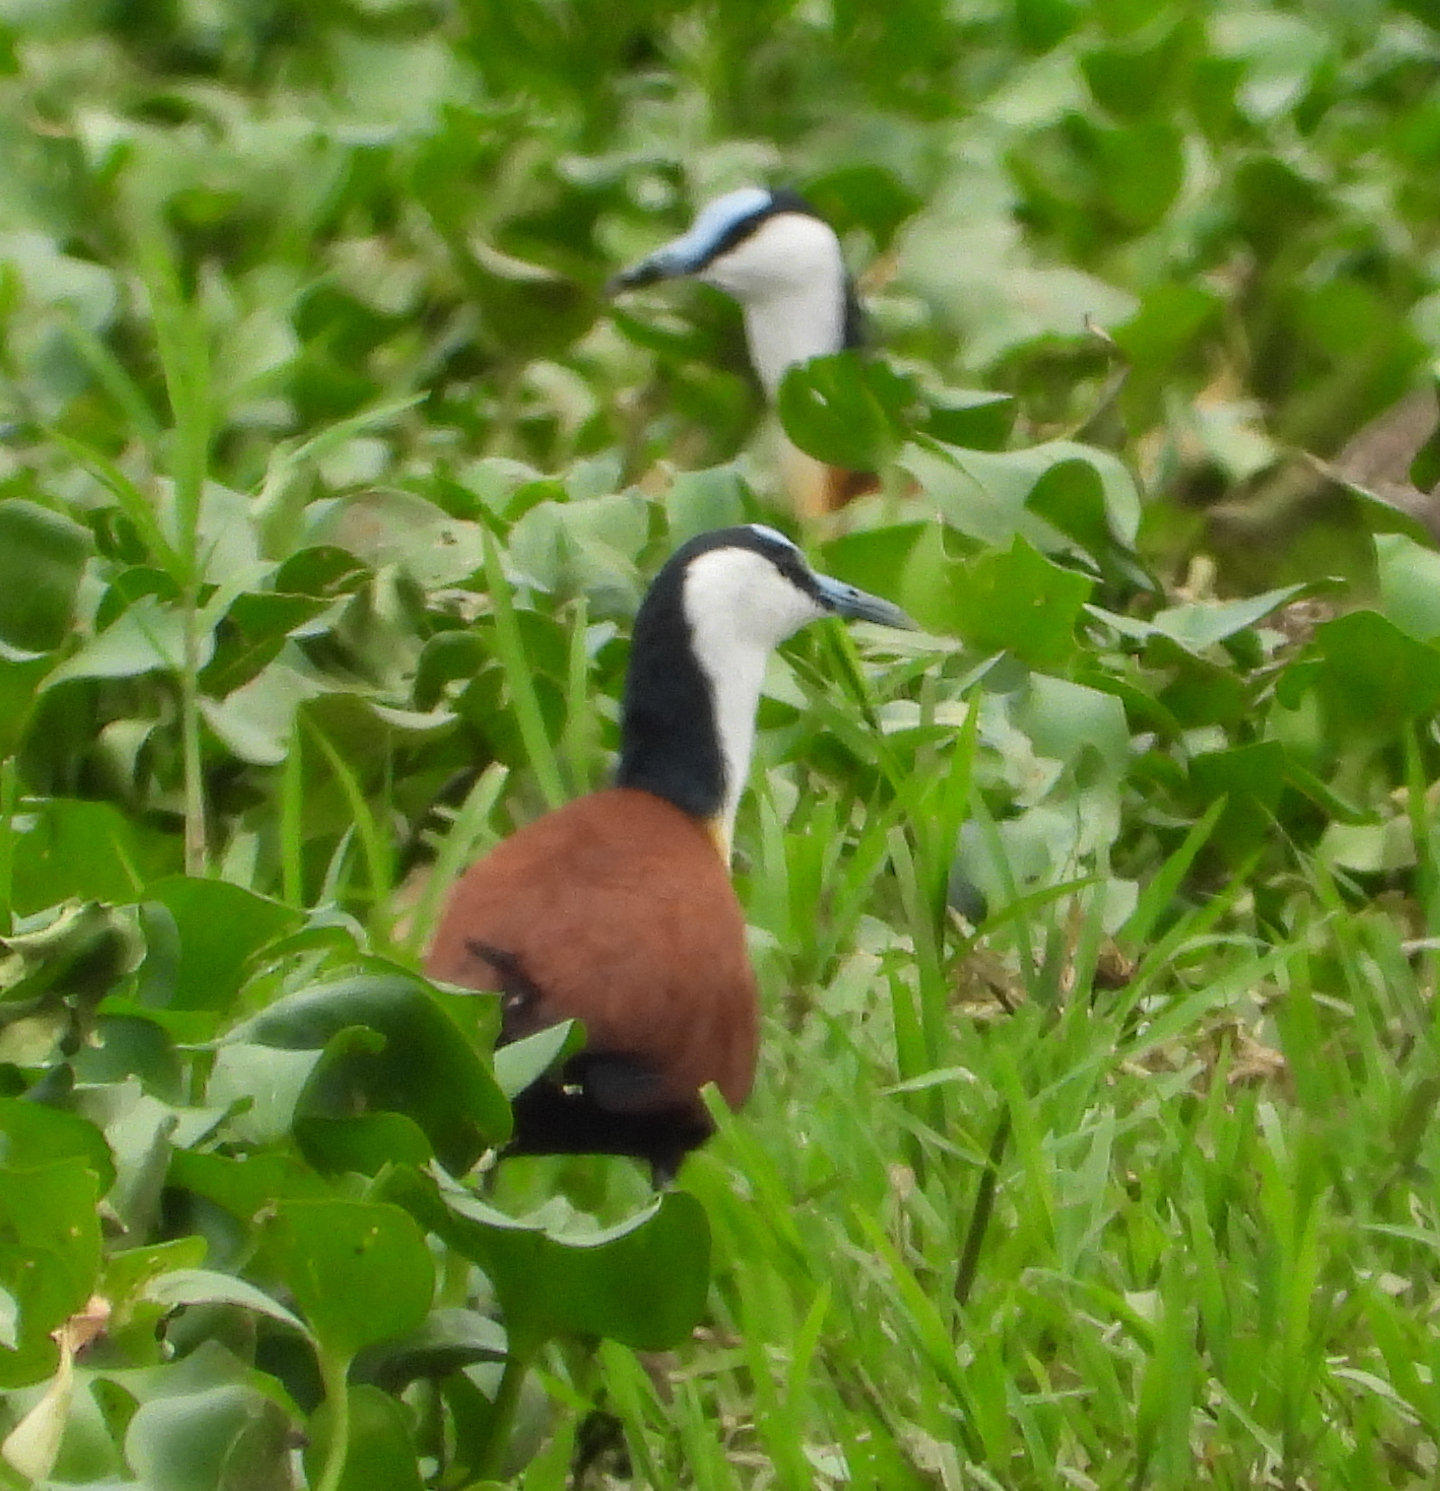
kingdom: Animalia
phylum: Chordata
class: Aves
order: Charadriiformes
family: Jacanidae
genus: Actophilornis
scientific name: Actophilornis africanus
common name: African jacana
